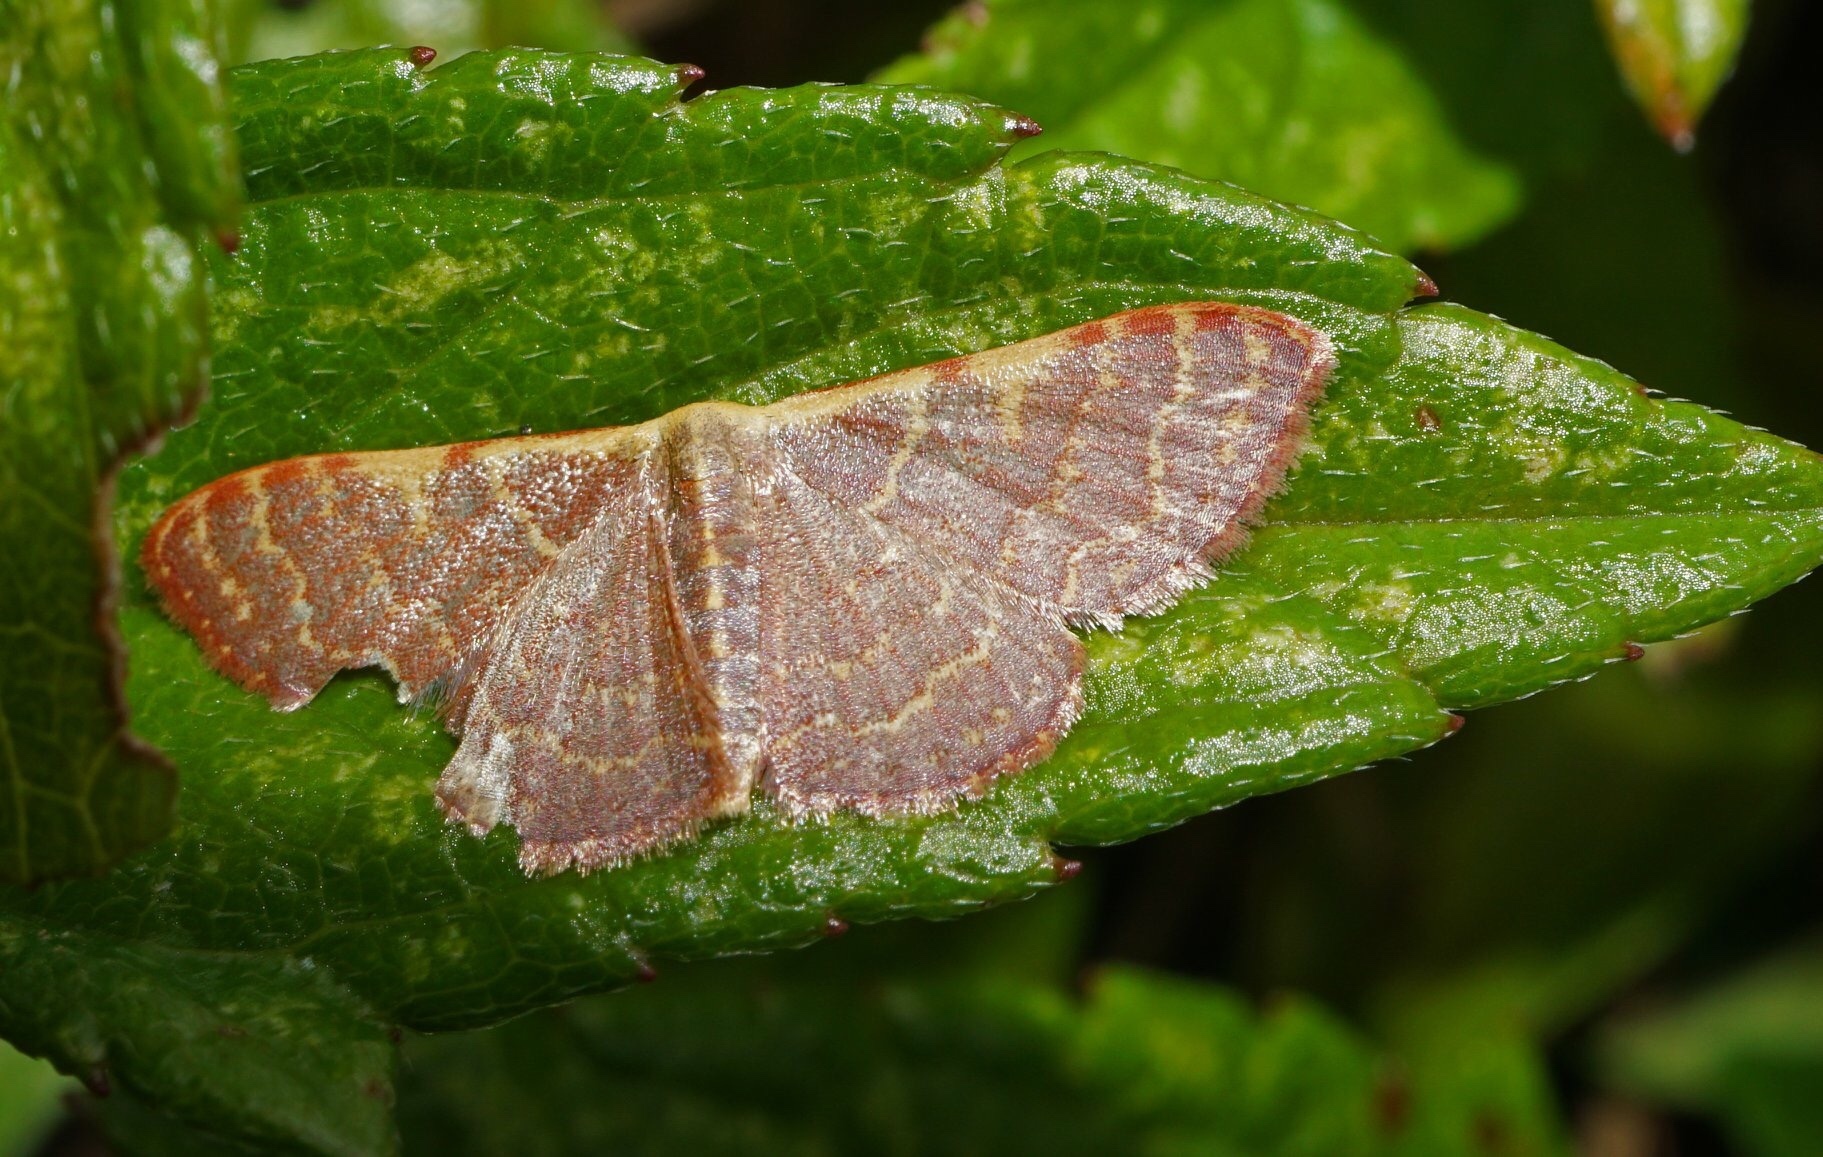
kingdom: Animalia
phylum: Arthropoda
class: Insecta
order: Lepidoptera
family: Geometridae
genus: Leptostales
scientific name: Leptostales pannaria
